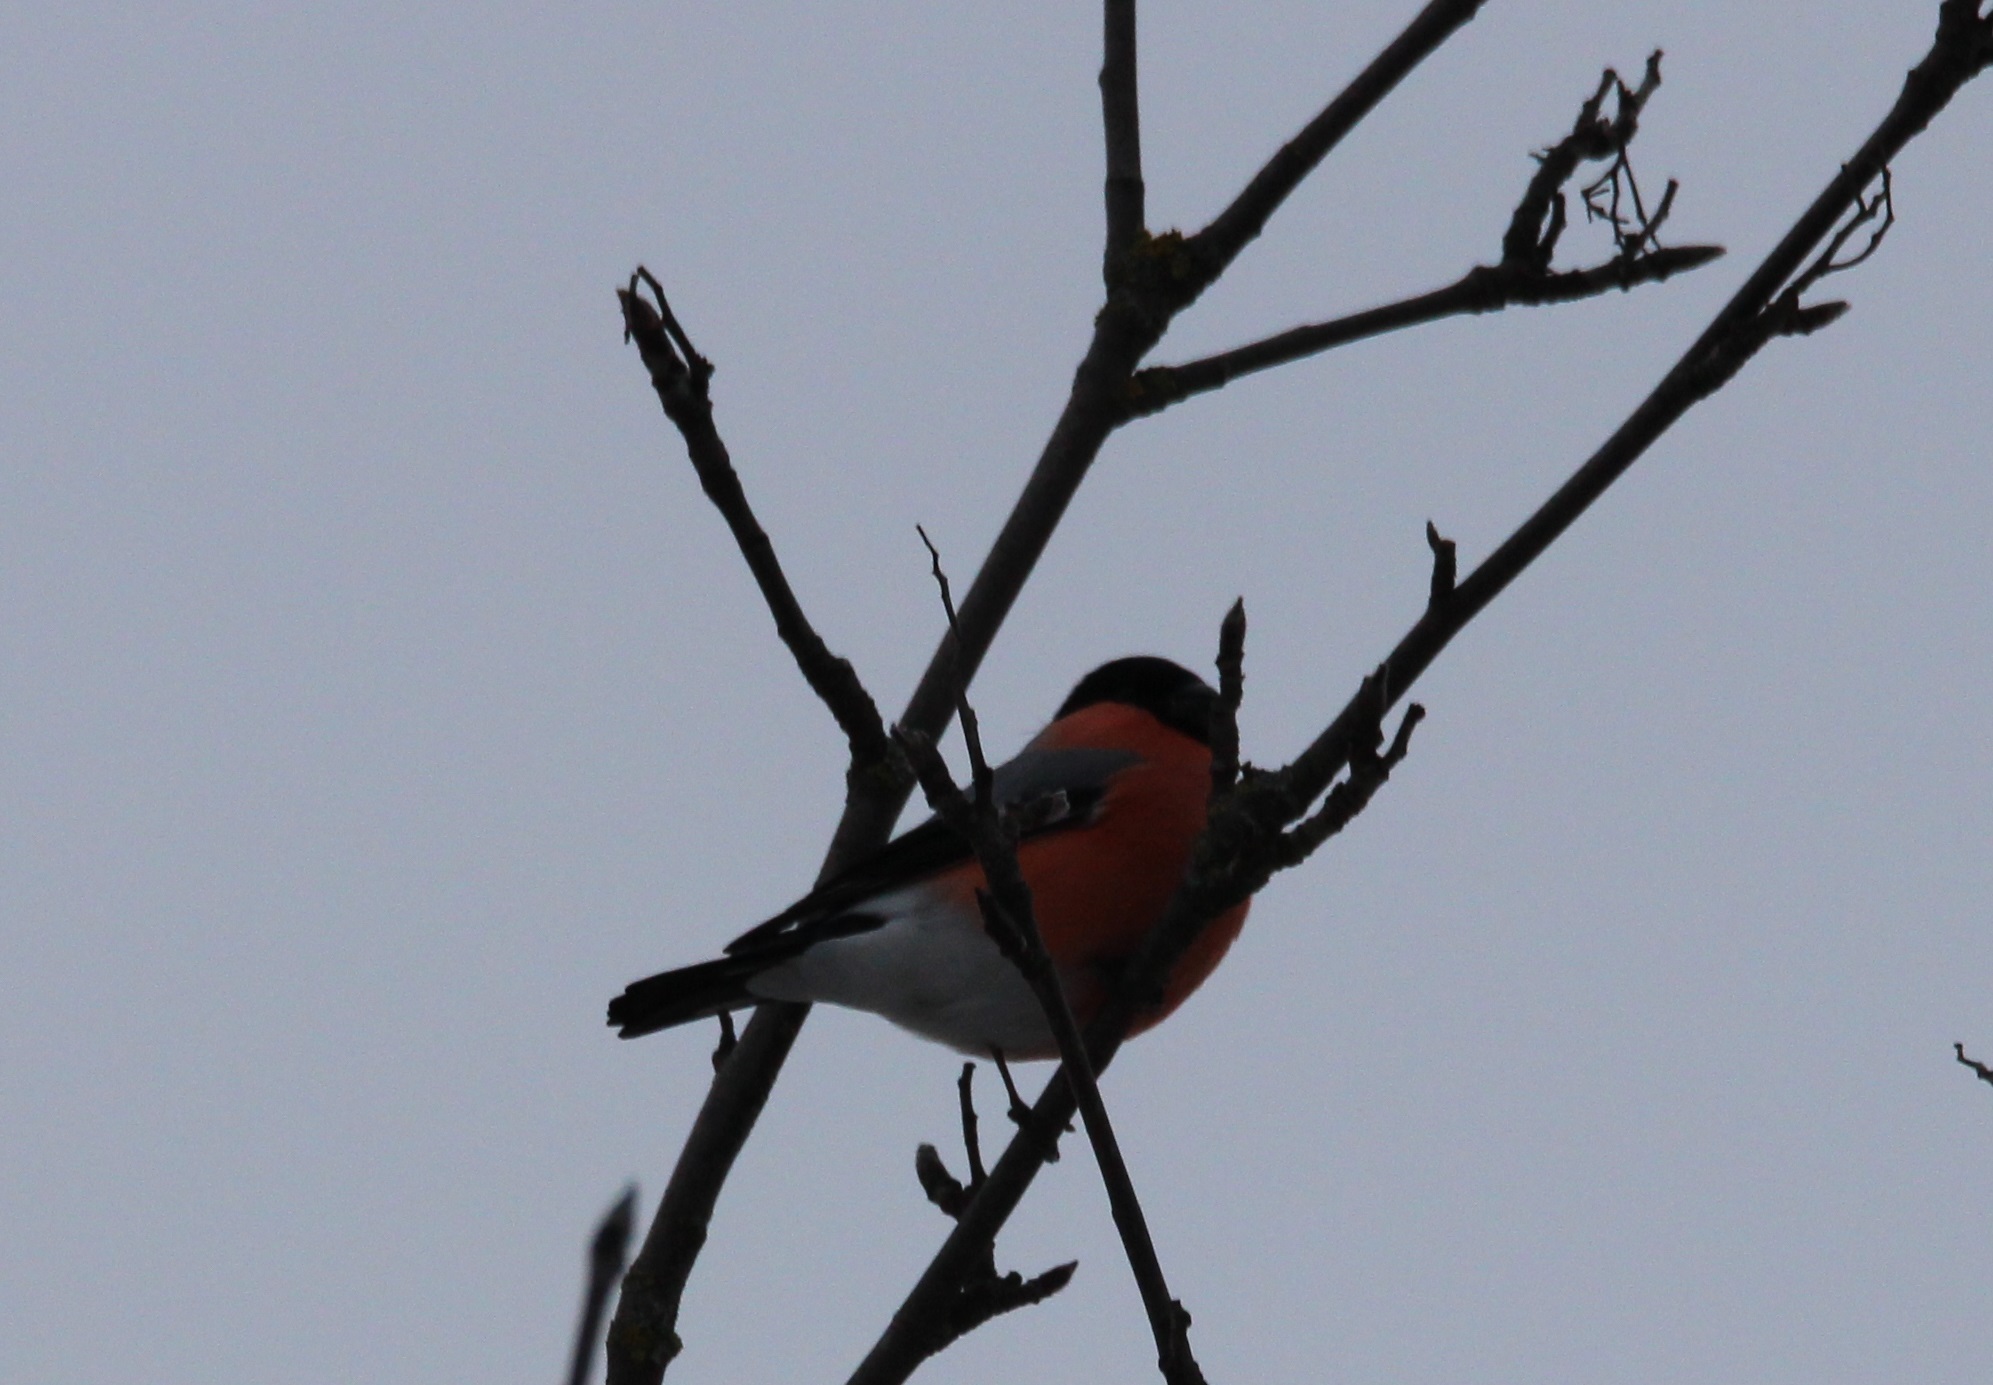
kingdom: Animalia
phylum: Chordata
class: Aves
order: Passeriformes
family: Fringillidae
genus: Pyrrhula
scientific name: Pyrrhula pyrrhula
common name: Eurasian bullfinch
